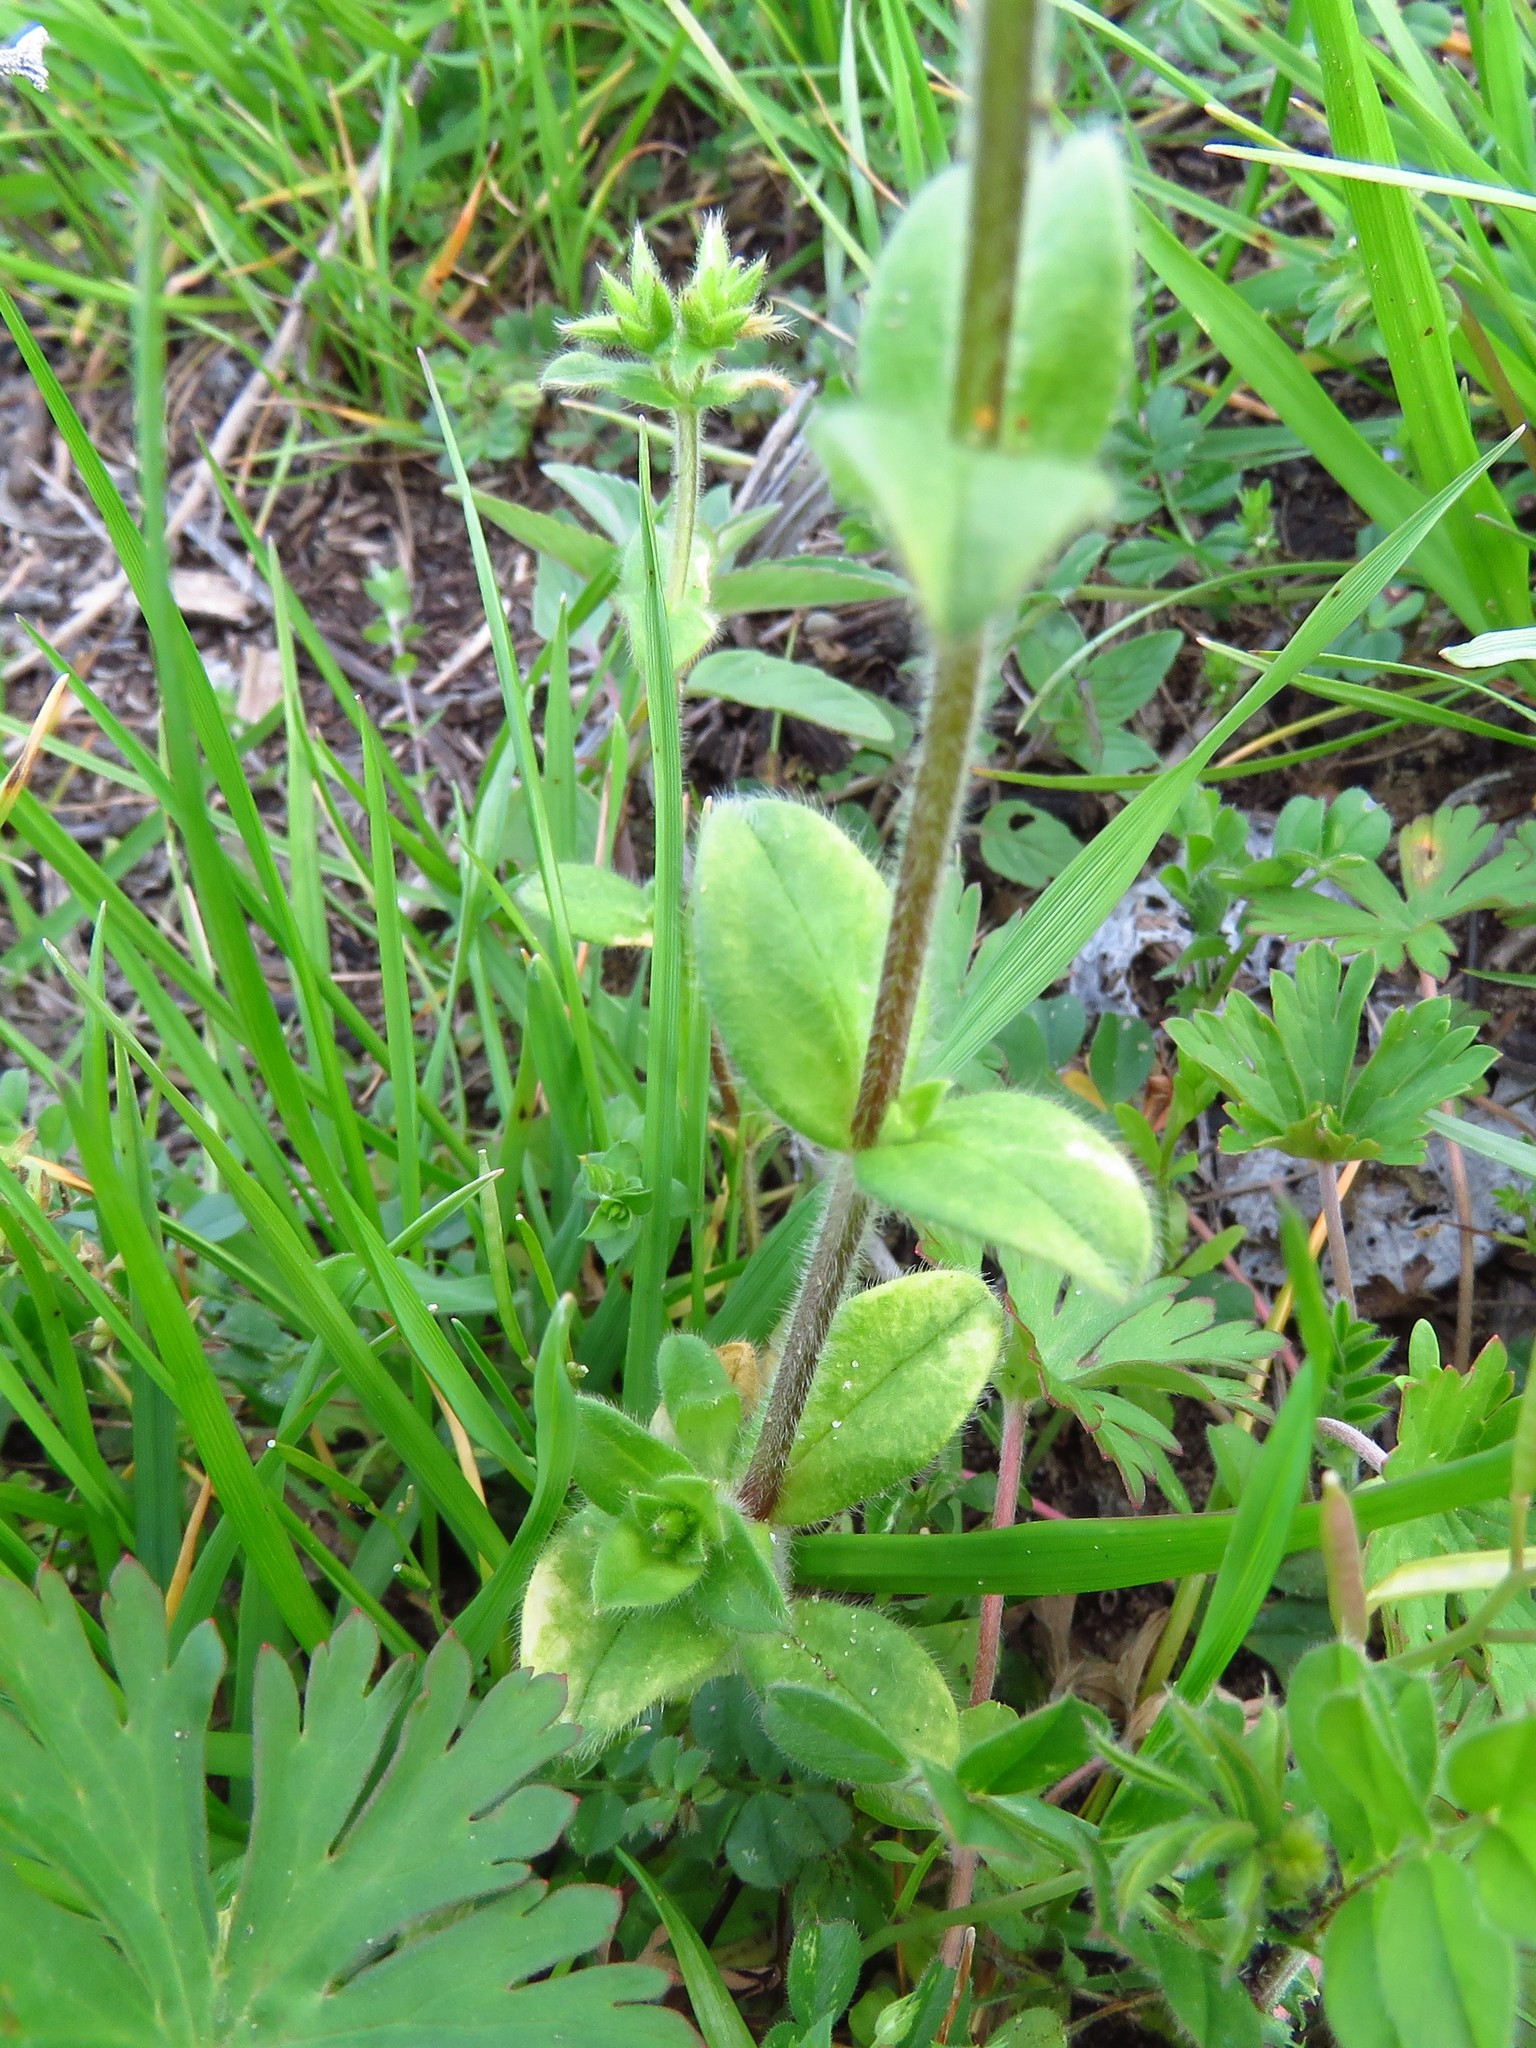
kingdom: Plantae
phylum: Tracheophyta
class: Magnoliopsida
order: Caryophyllales
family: Caryophyllaceae
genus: Cerastium
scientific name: Cerastium glomeratum
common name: Sticky chickweed
